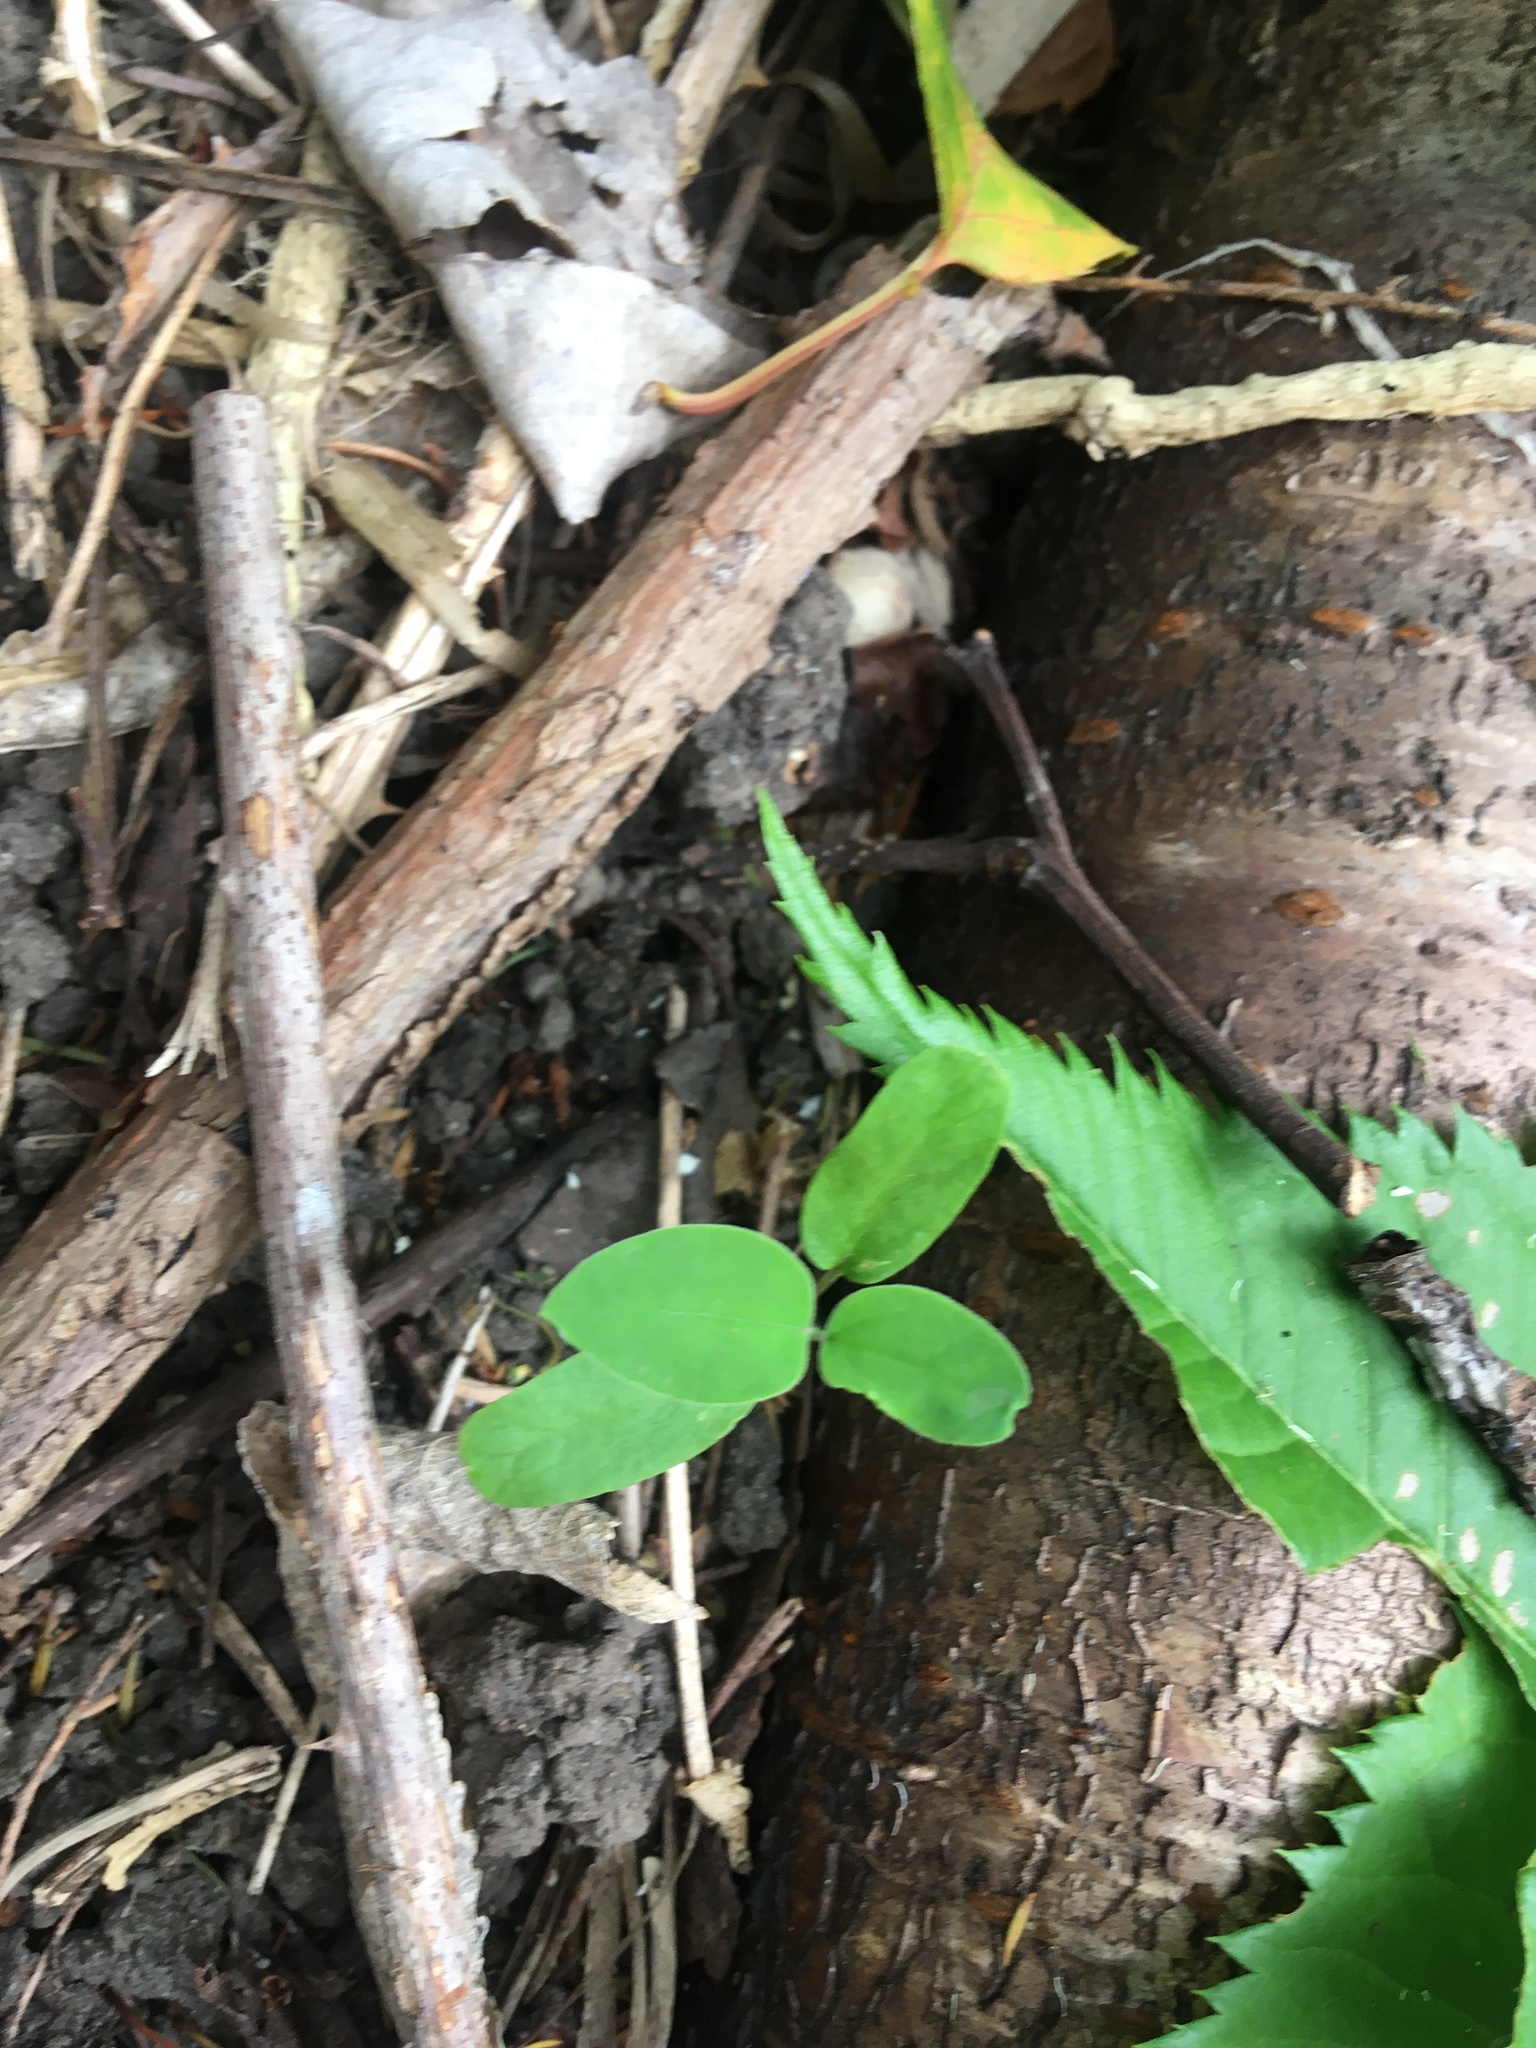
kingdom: Plantae
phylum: Tracheophyta
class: Magnoliopsida
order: Gentianales
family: Apocynaceae
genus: Araujia
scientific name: Araujia sericifera
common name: White bladderflower
